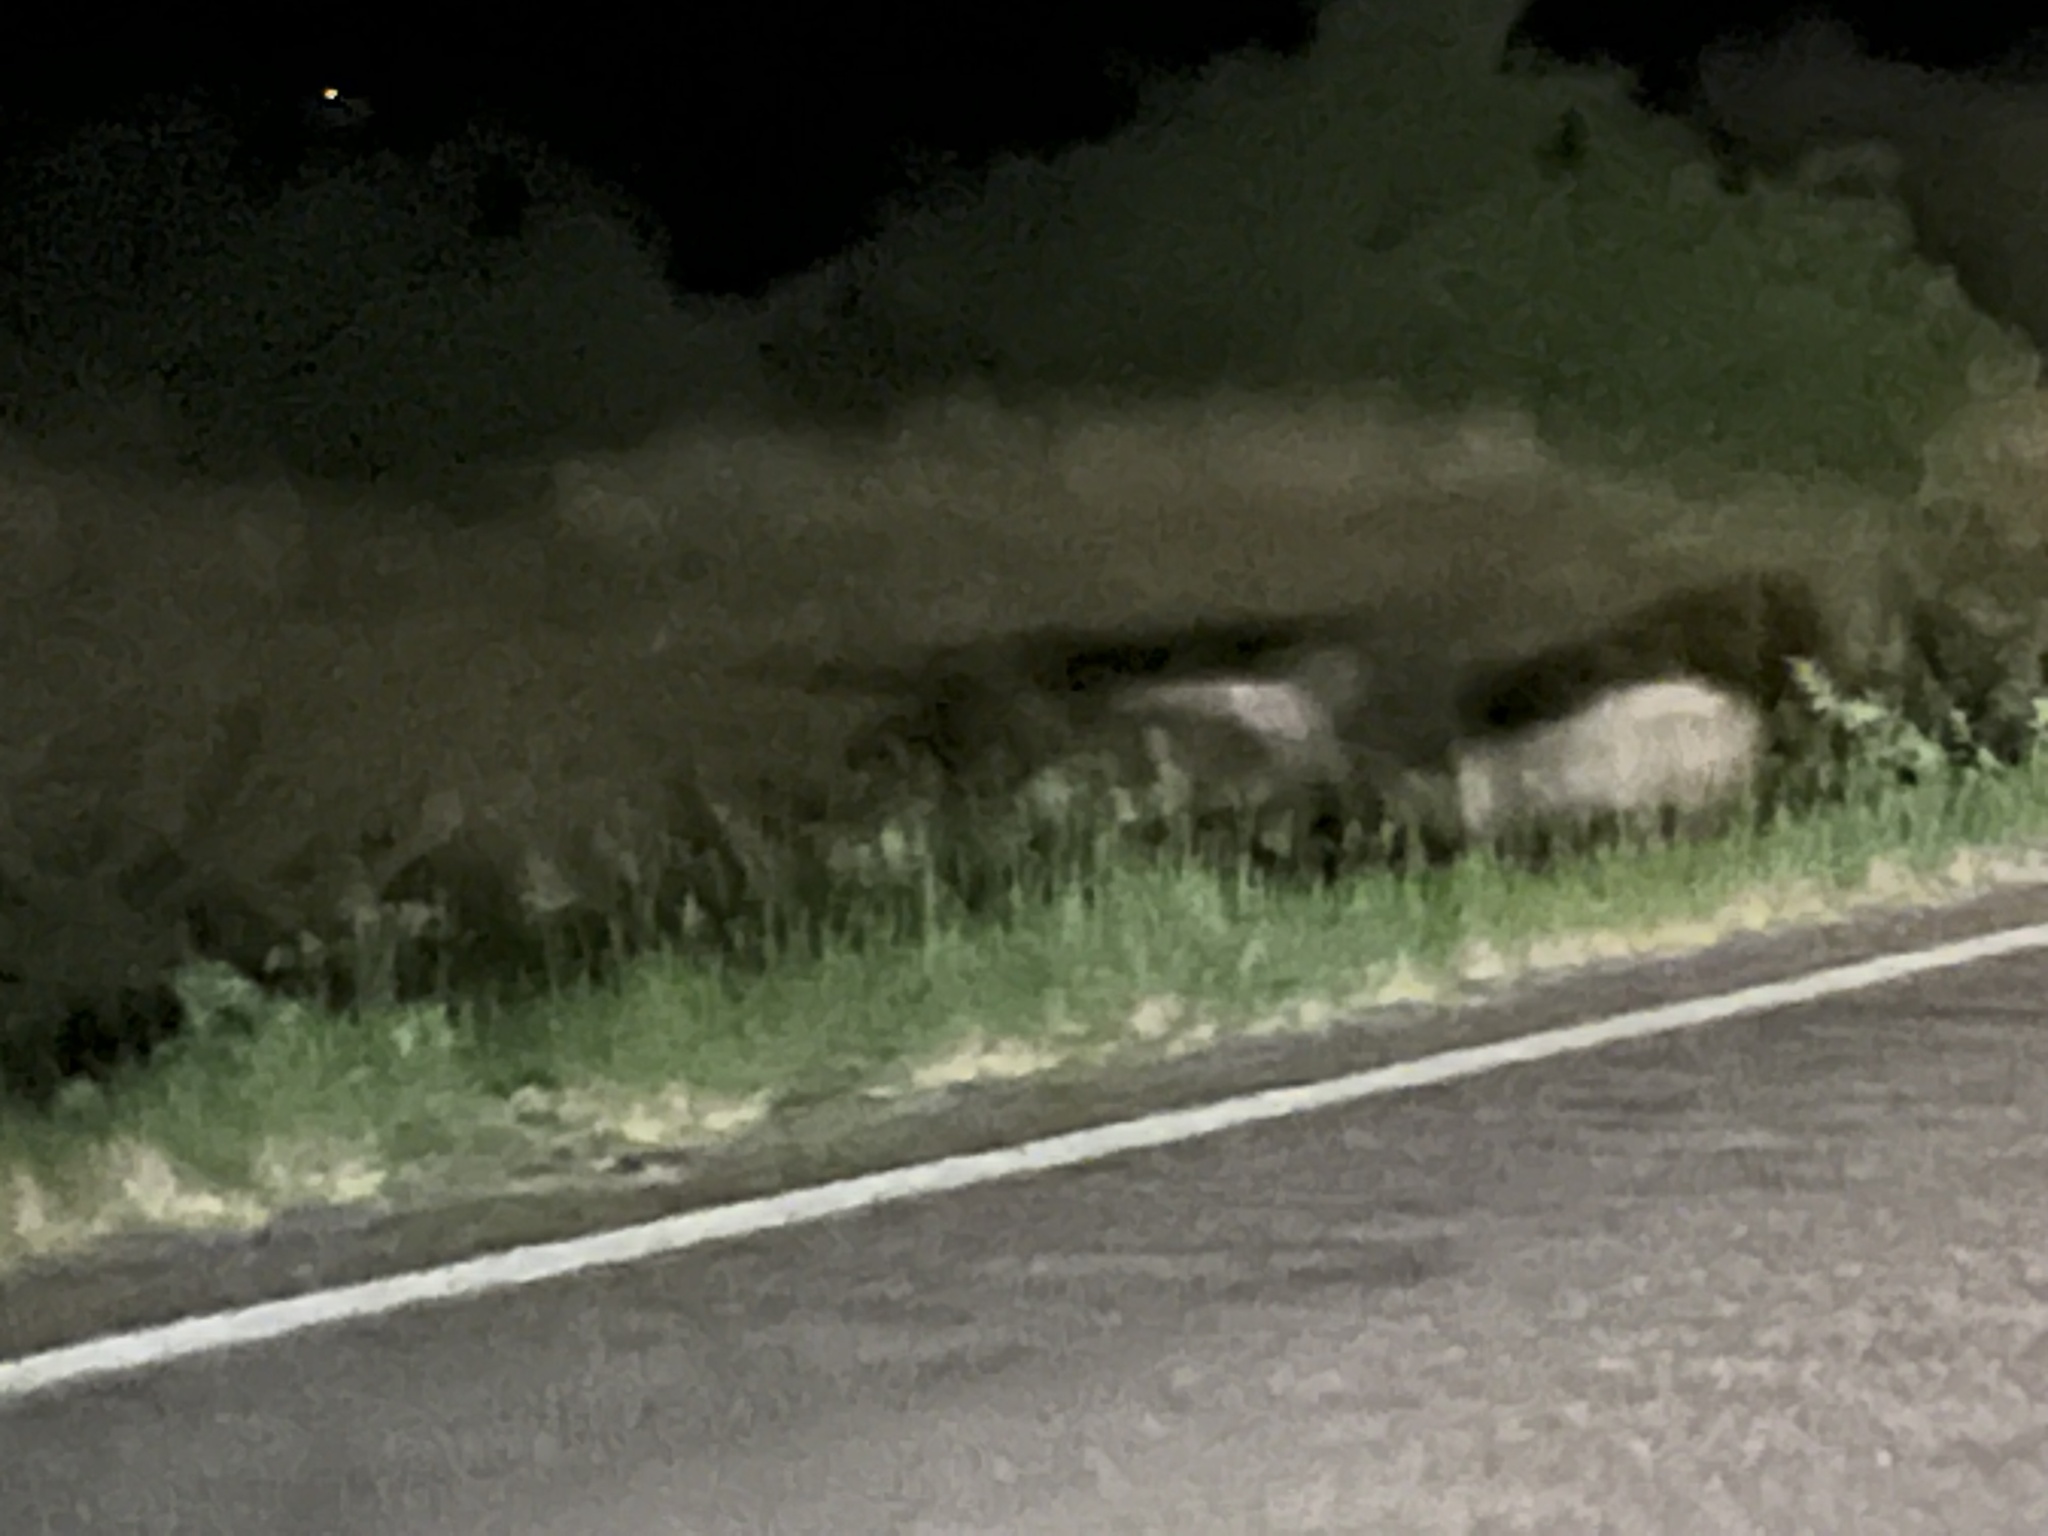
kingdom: Animalia
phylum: Chordata
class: Mammalia
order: Artiodactyla
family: Tayassuidae
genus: Pecari
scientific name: Pecari tajacu
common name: Collared peccary
